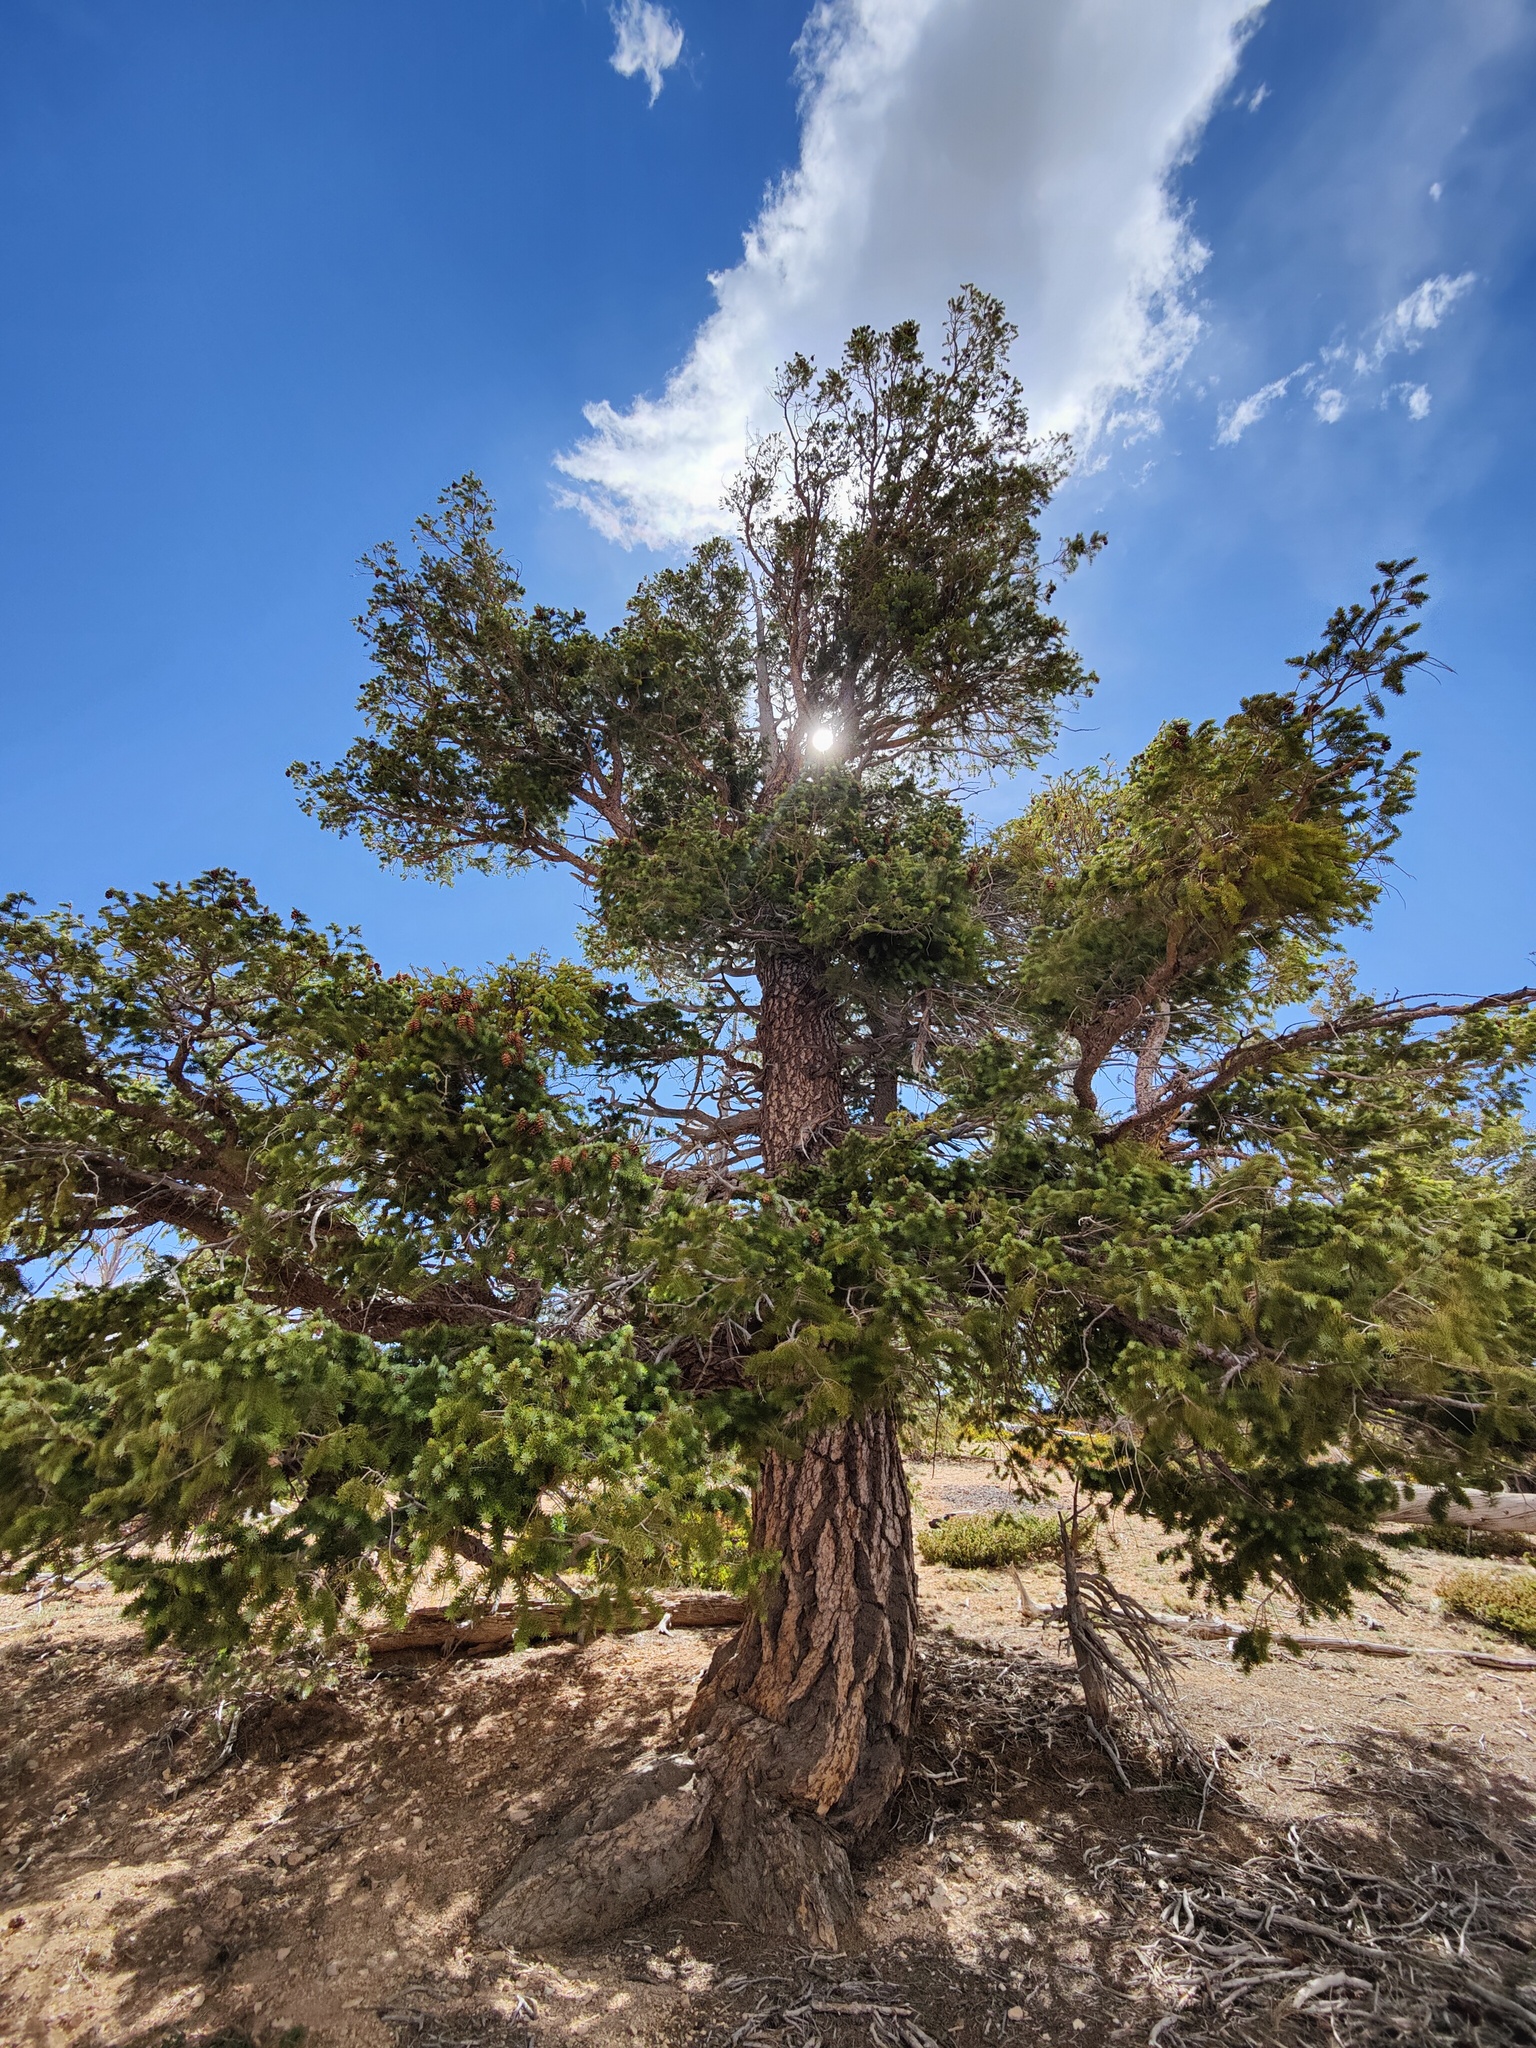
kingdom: Plantae
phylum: Tracheophyta
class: Pinopsida
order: Pinales
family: Pinaceae
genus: Pseudotsuga
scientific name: Pseudotsuga menziesii
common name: Douglas fir
